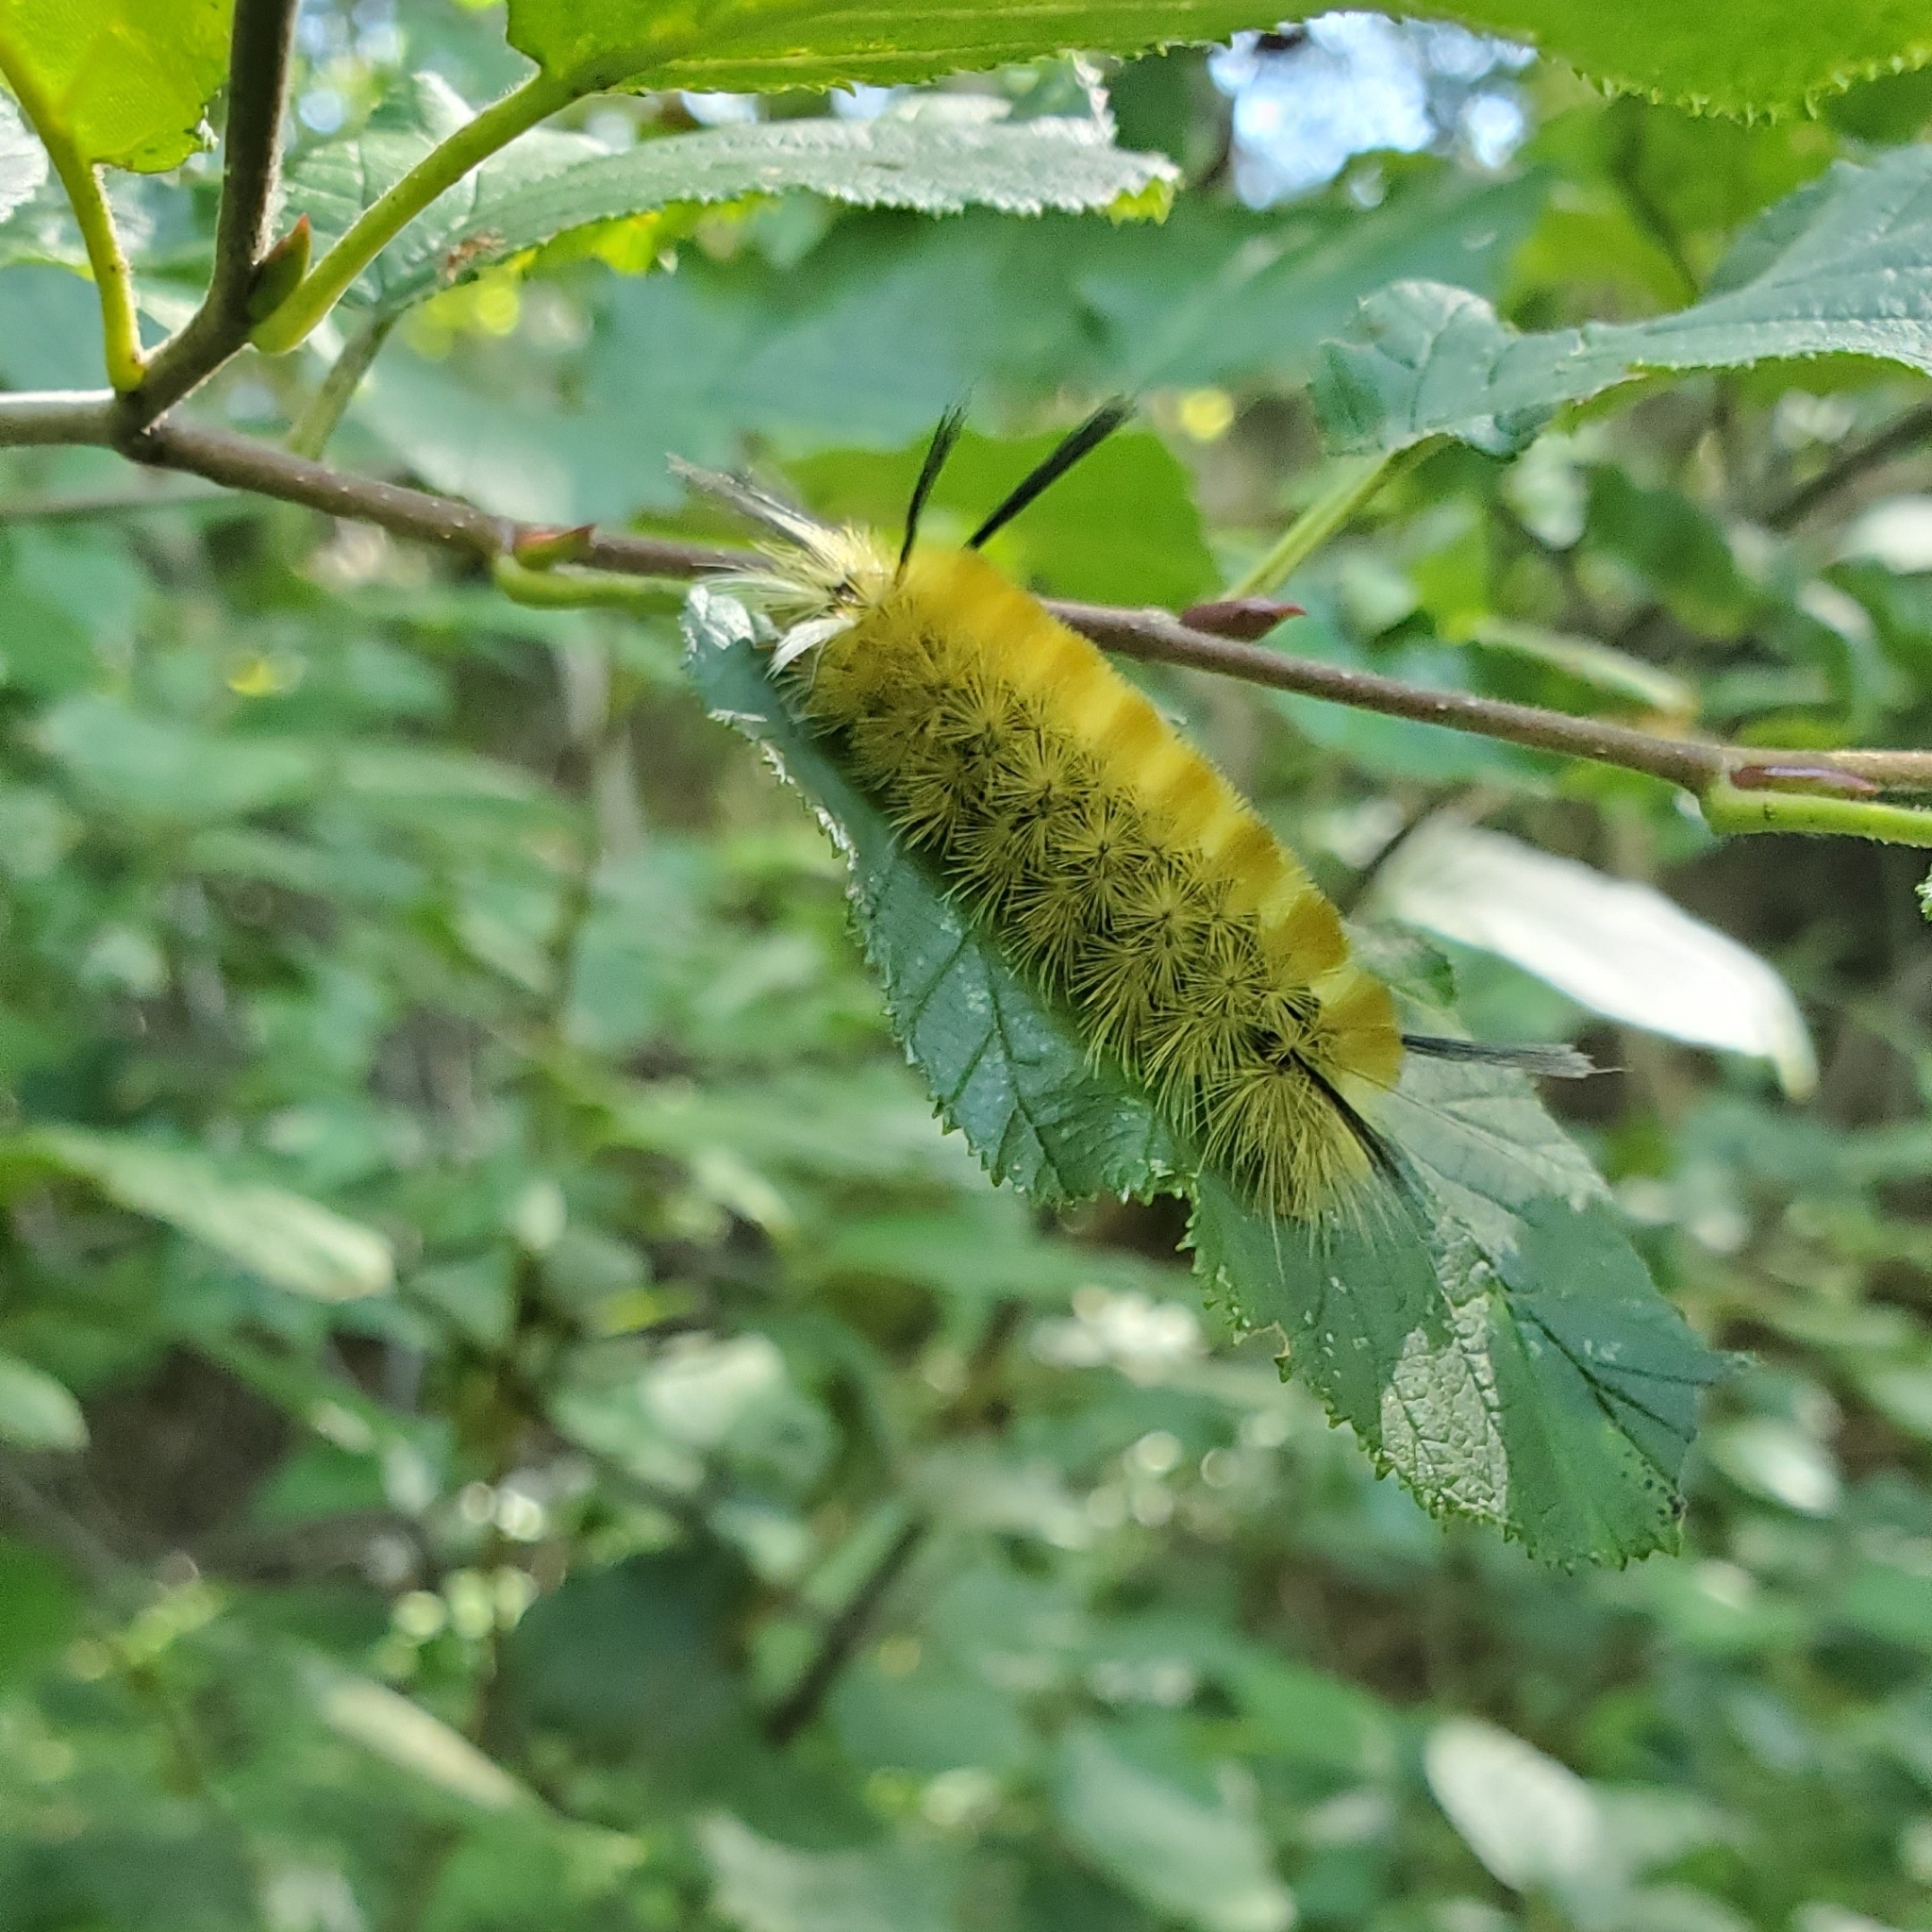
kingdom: Animalia
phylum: Arthropoda
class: Insecta
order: Lepidoptera
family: Erebidae
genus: Halysidota
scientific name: Halysidota tessellaris
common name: Banded tussock moth
